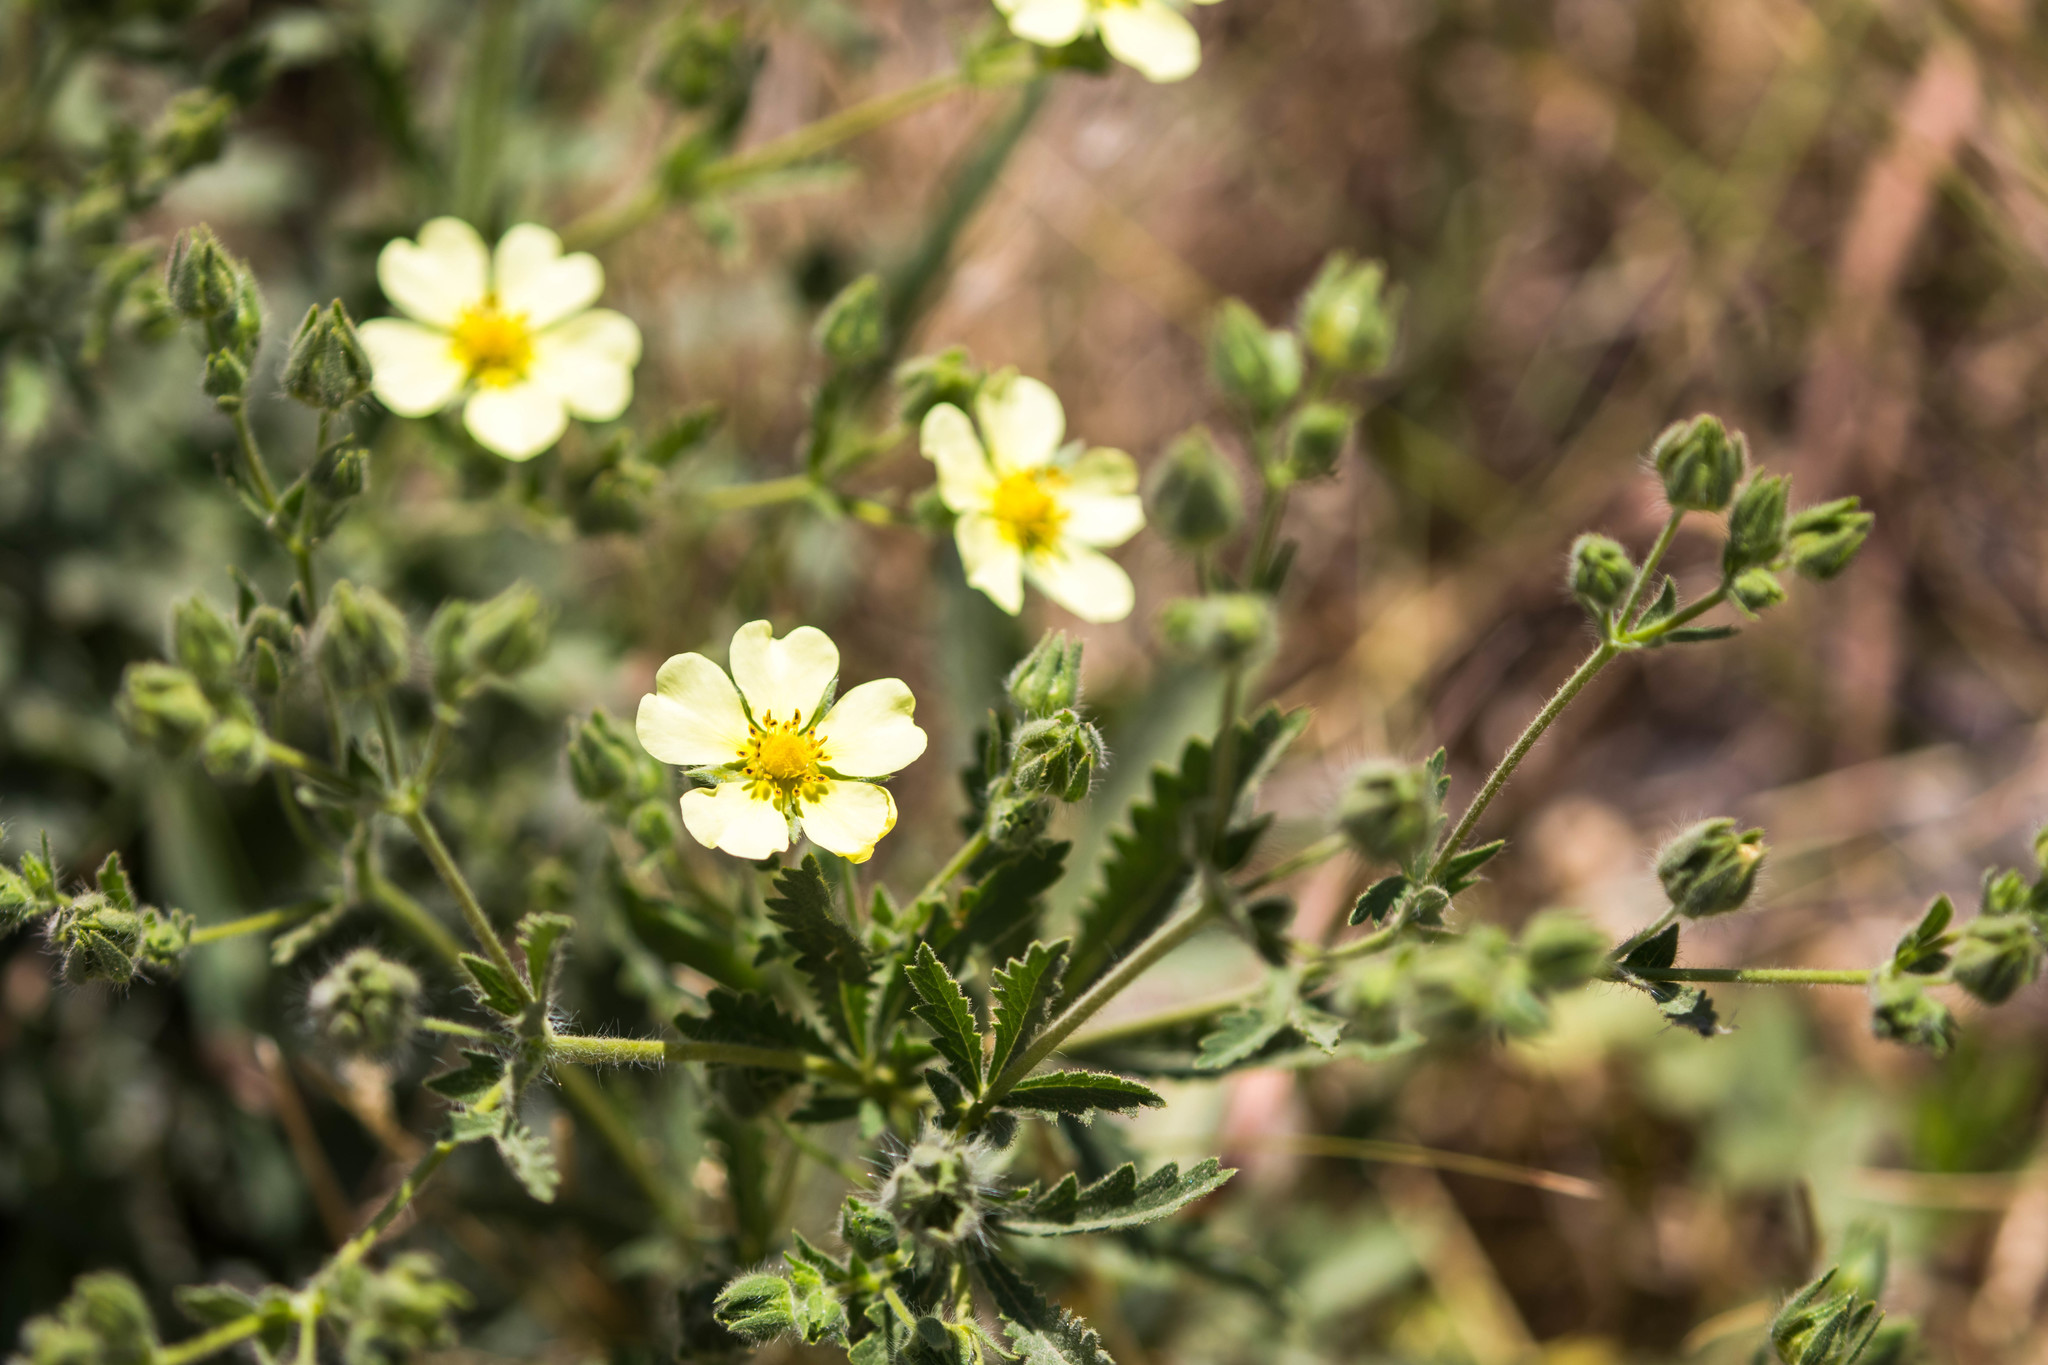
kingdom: Plantae
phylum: Tracheophyta
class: Magnoliopsida
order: Rosales
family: Rosaceae
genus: Potentilla
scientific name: Potentilla recta
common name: Sulphur cinquefoil
